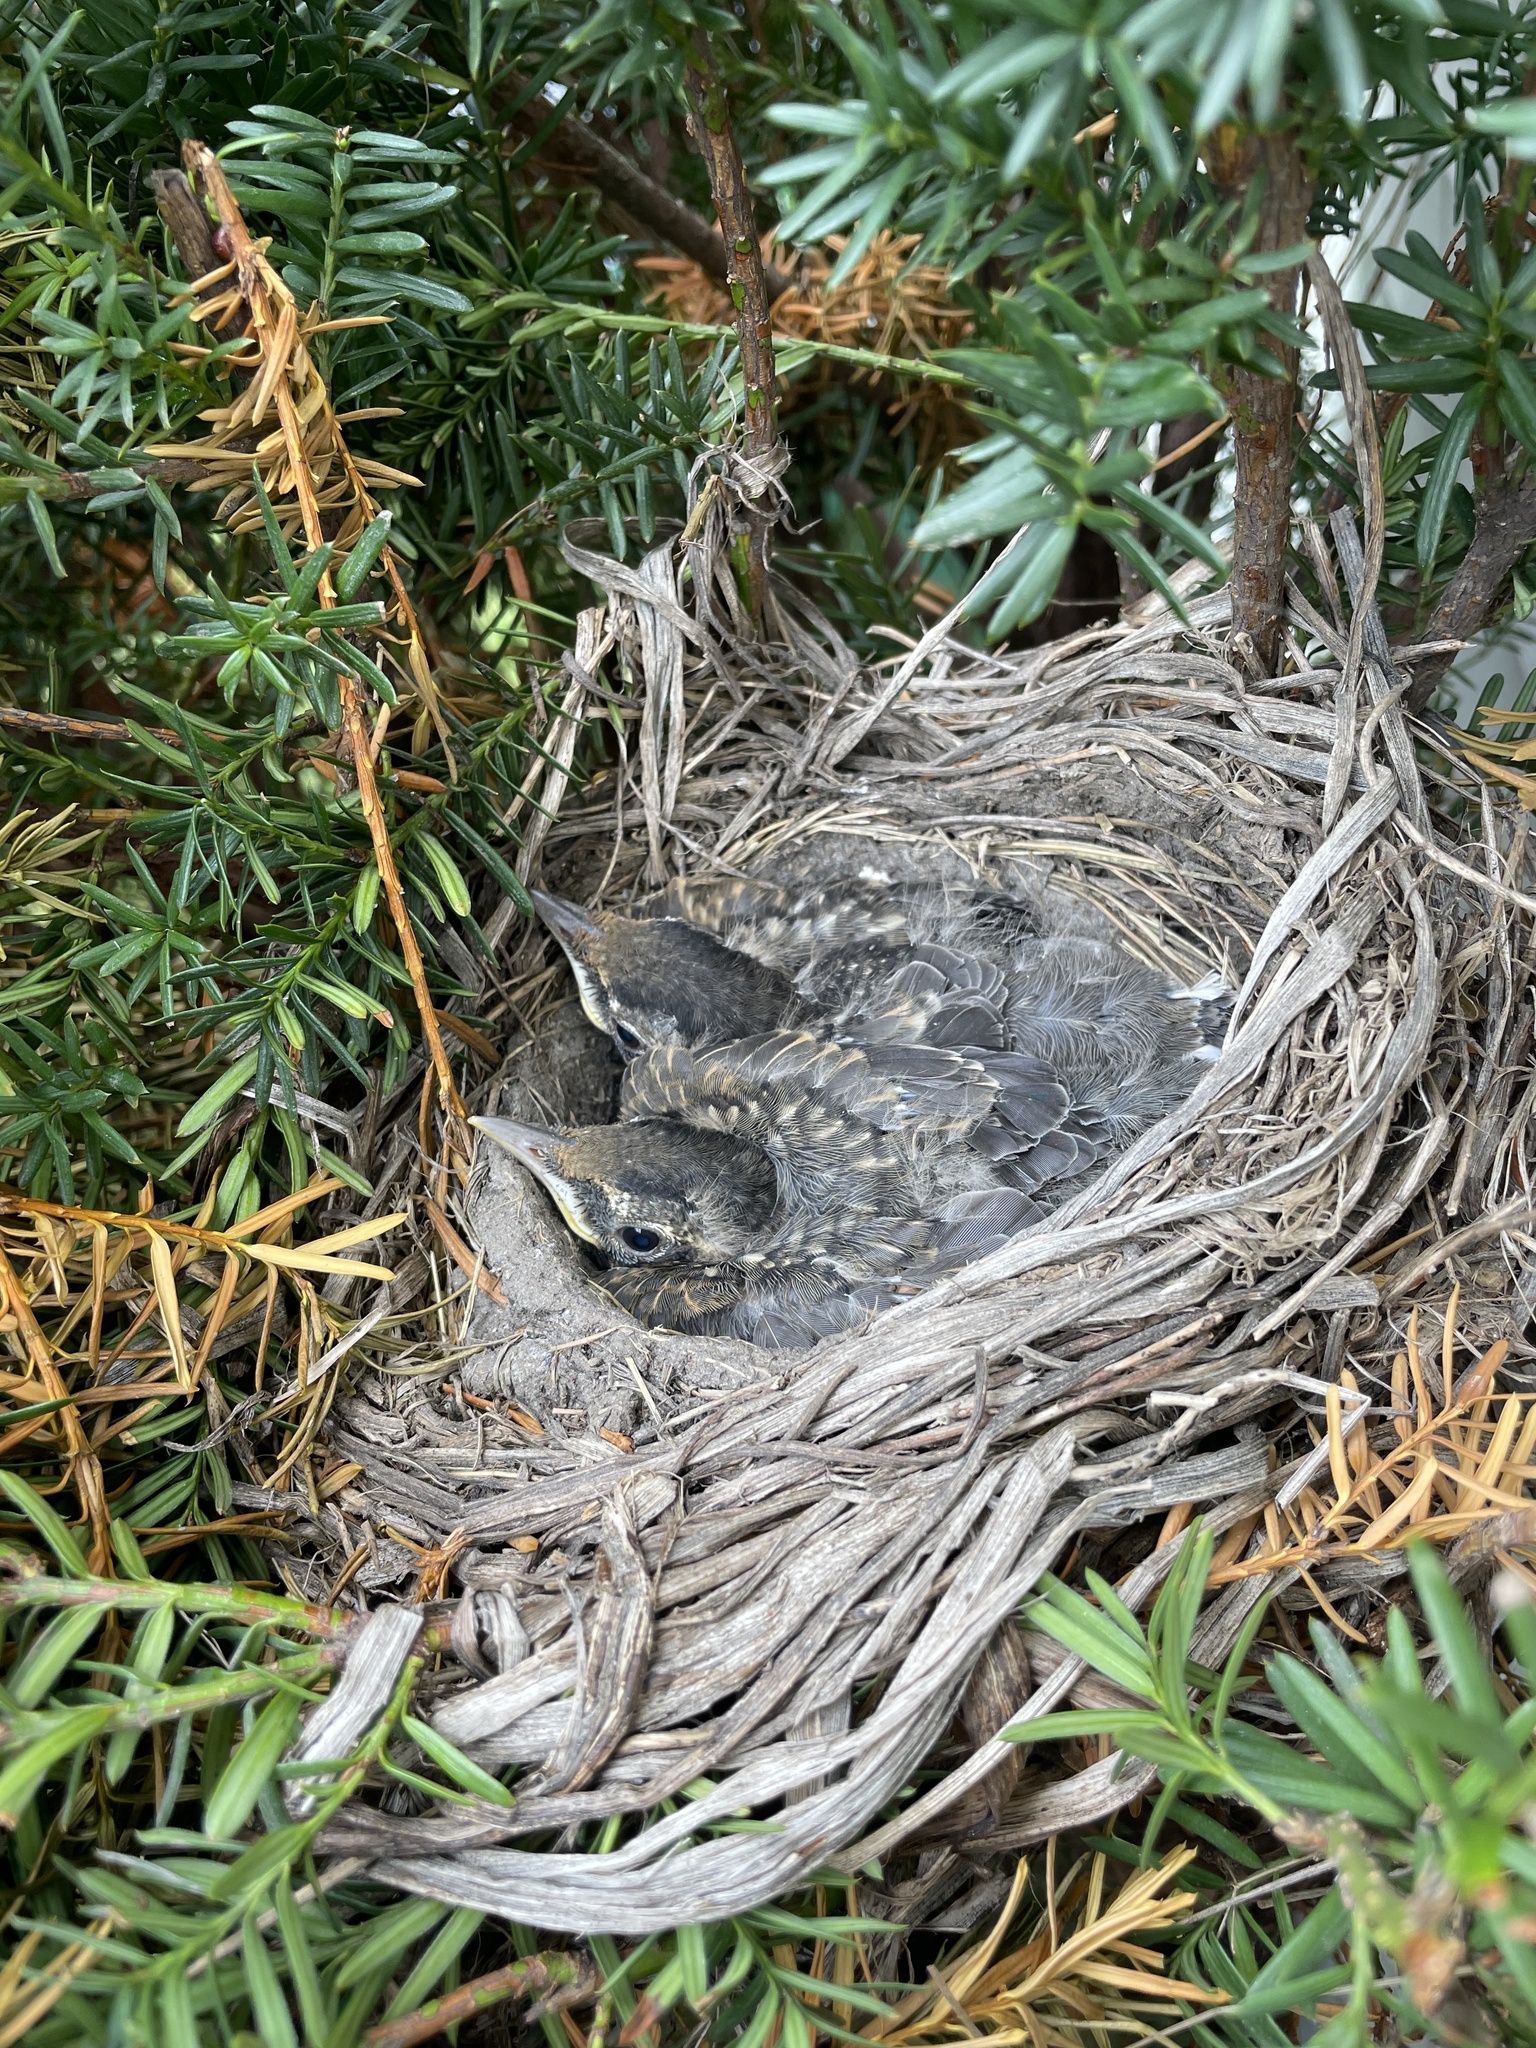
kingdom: Animalia
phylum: Chordata
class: Aves
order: Passeriformes
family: Turdidae
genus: Turdus
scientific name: Turdus migratorius
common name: American robin
